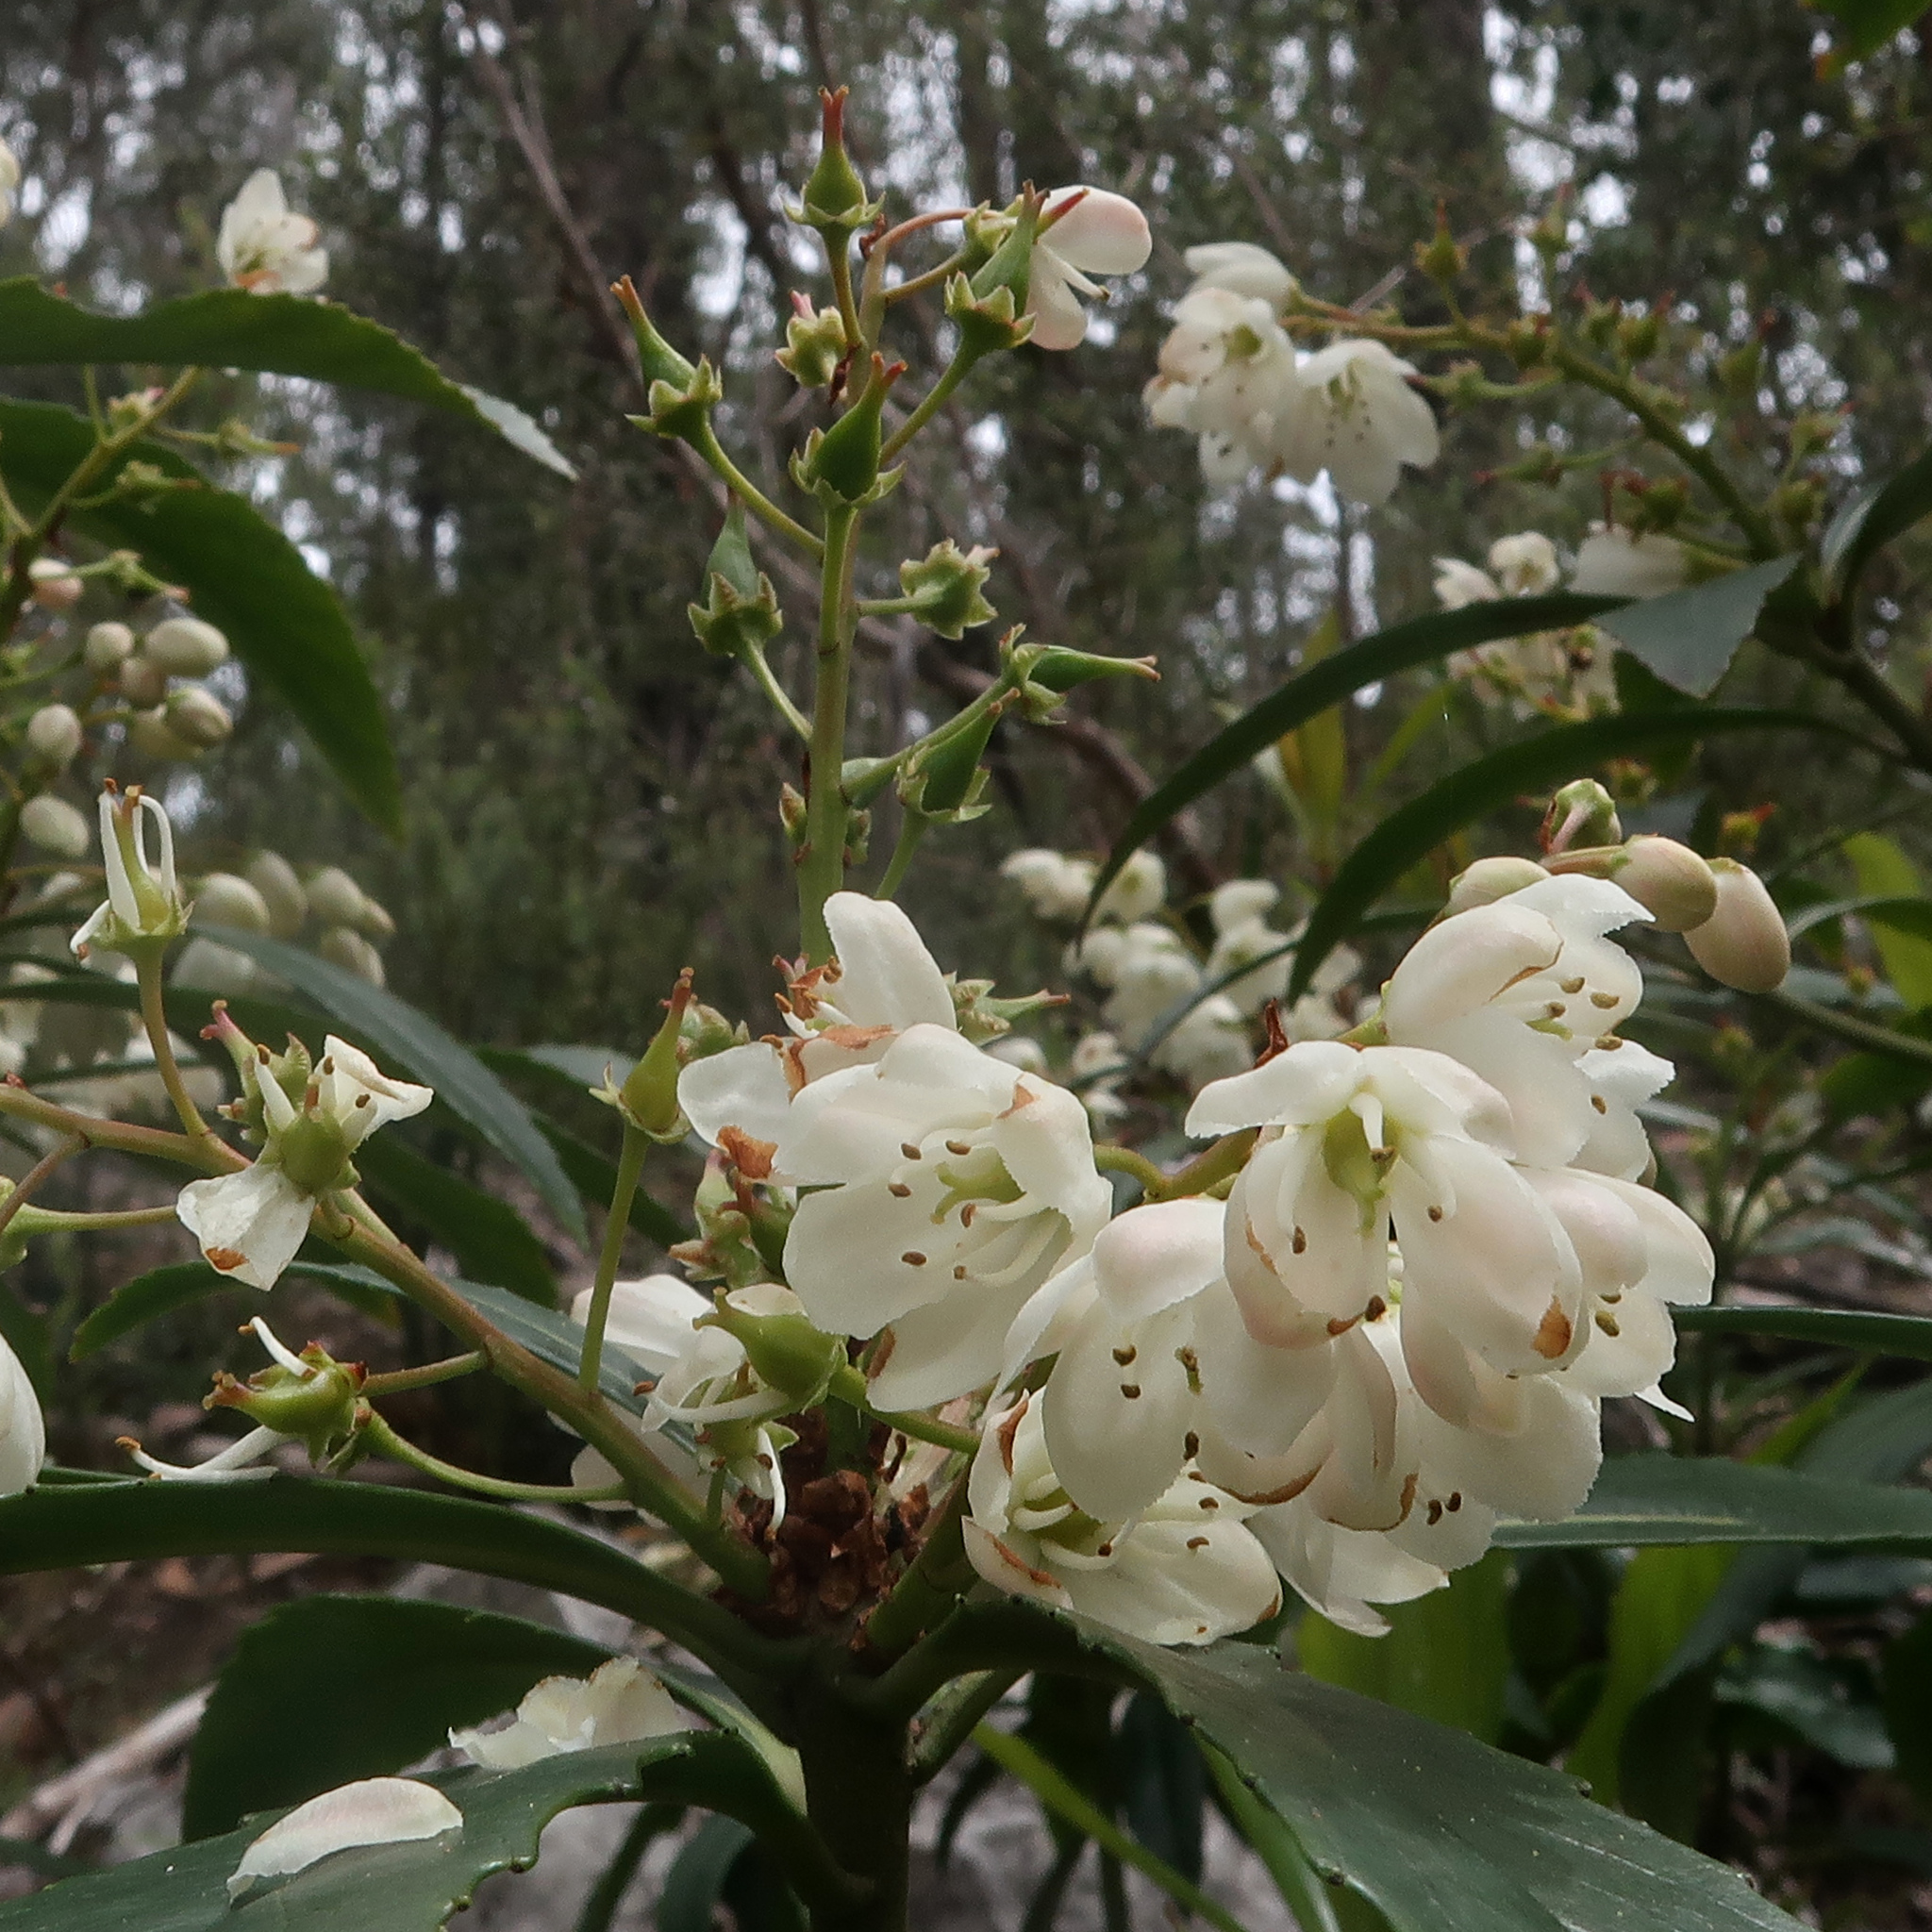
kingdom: Plantae
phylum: Tracheophyta
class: Magnoliopsida
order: Escalloniales
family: Escalloniaceae
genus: Anopterus
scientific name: Anopterus glandulosus
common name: Tasmanian-laurel
